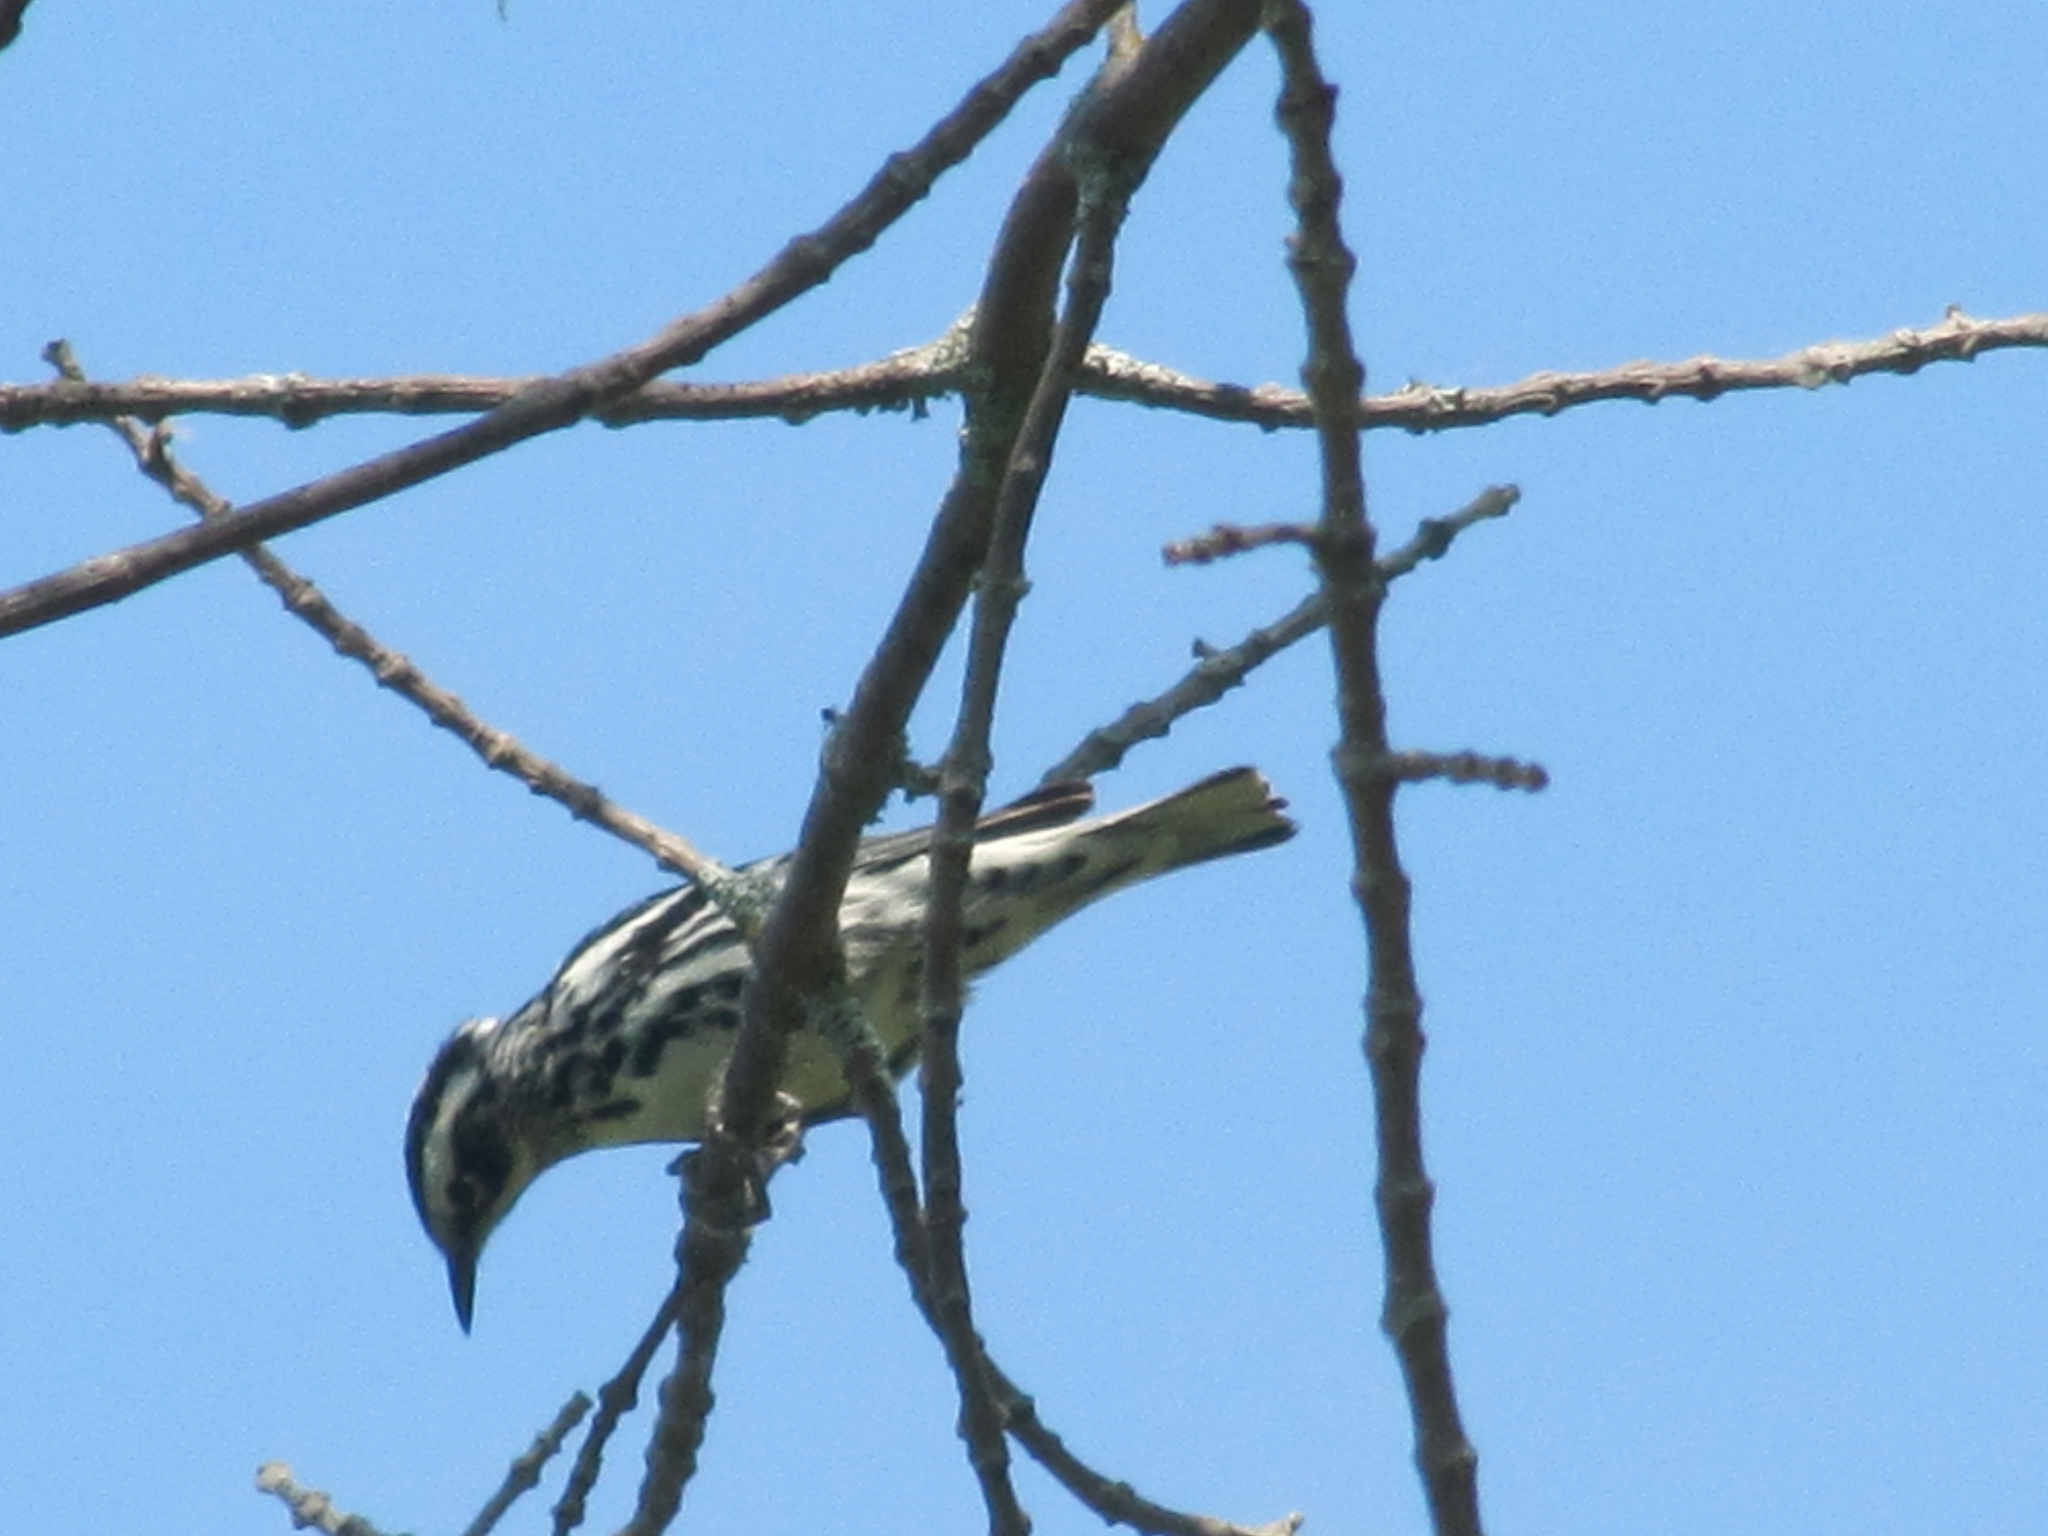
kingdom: Animalia
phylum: Chordata
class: Aves
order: Passeriformes
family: Parulidae
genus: Mniotilta
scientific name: Mniotilta varia
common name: Black-and-white warbler
